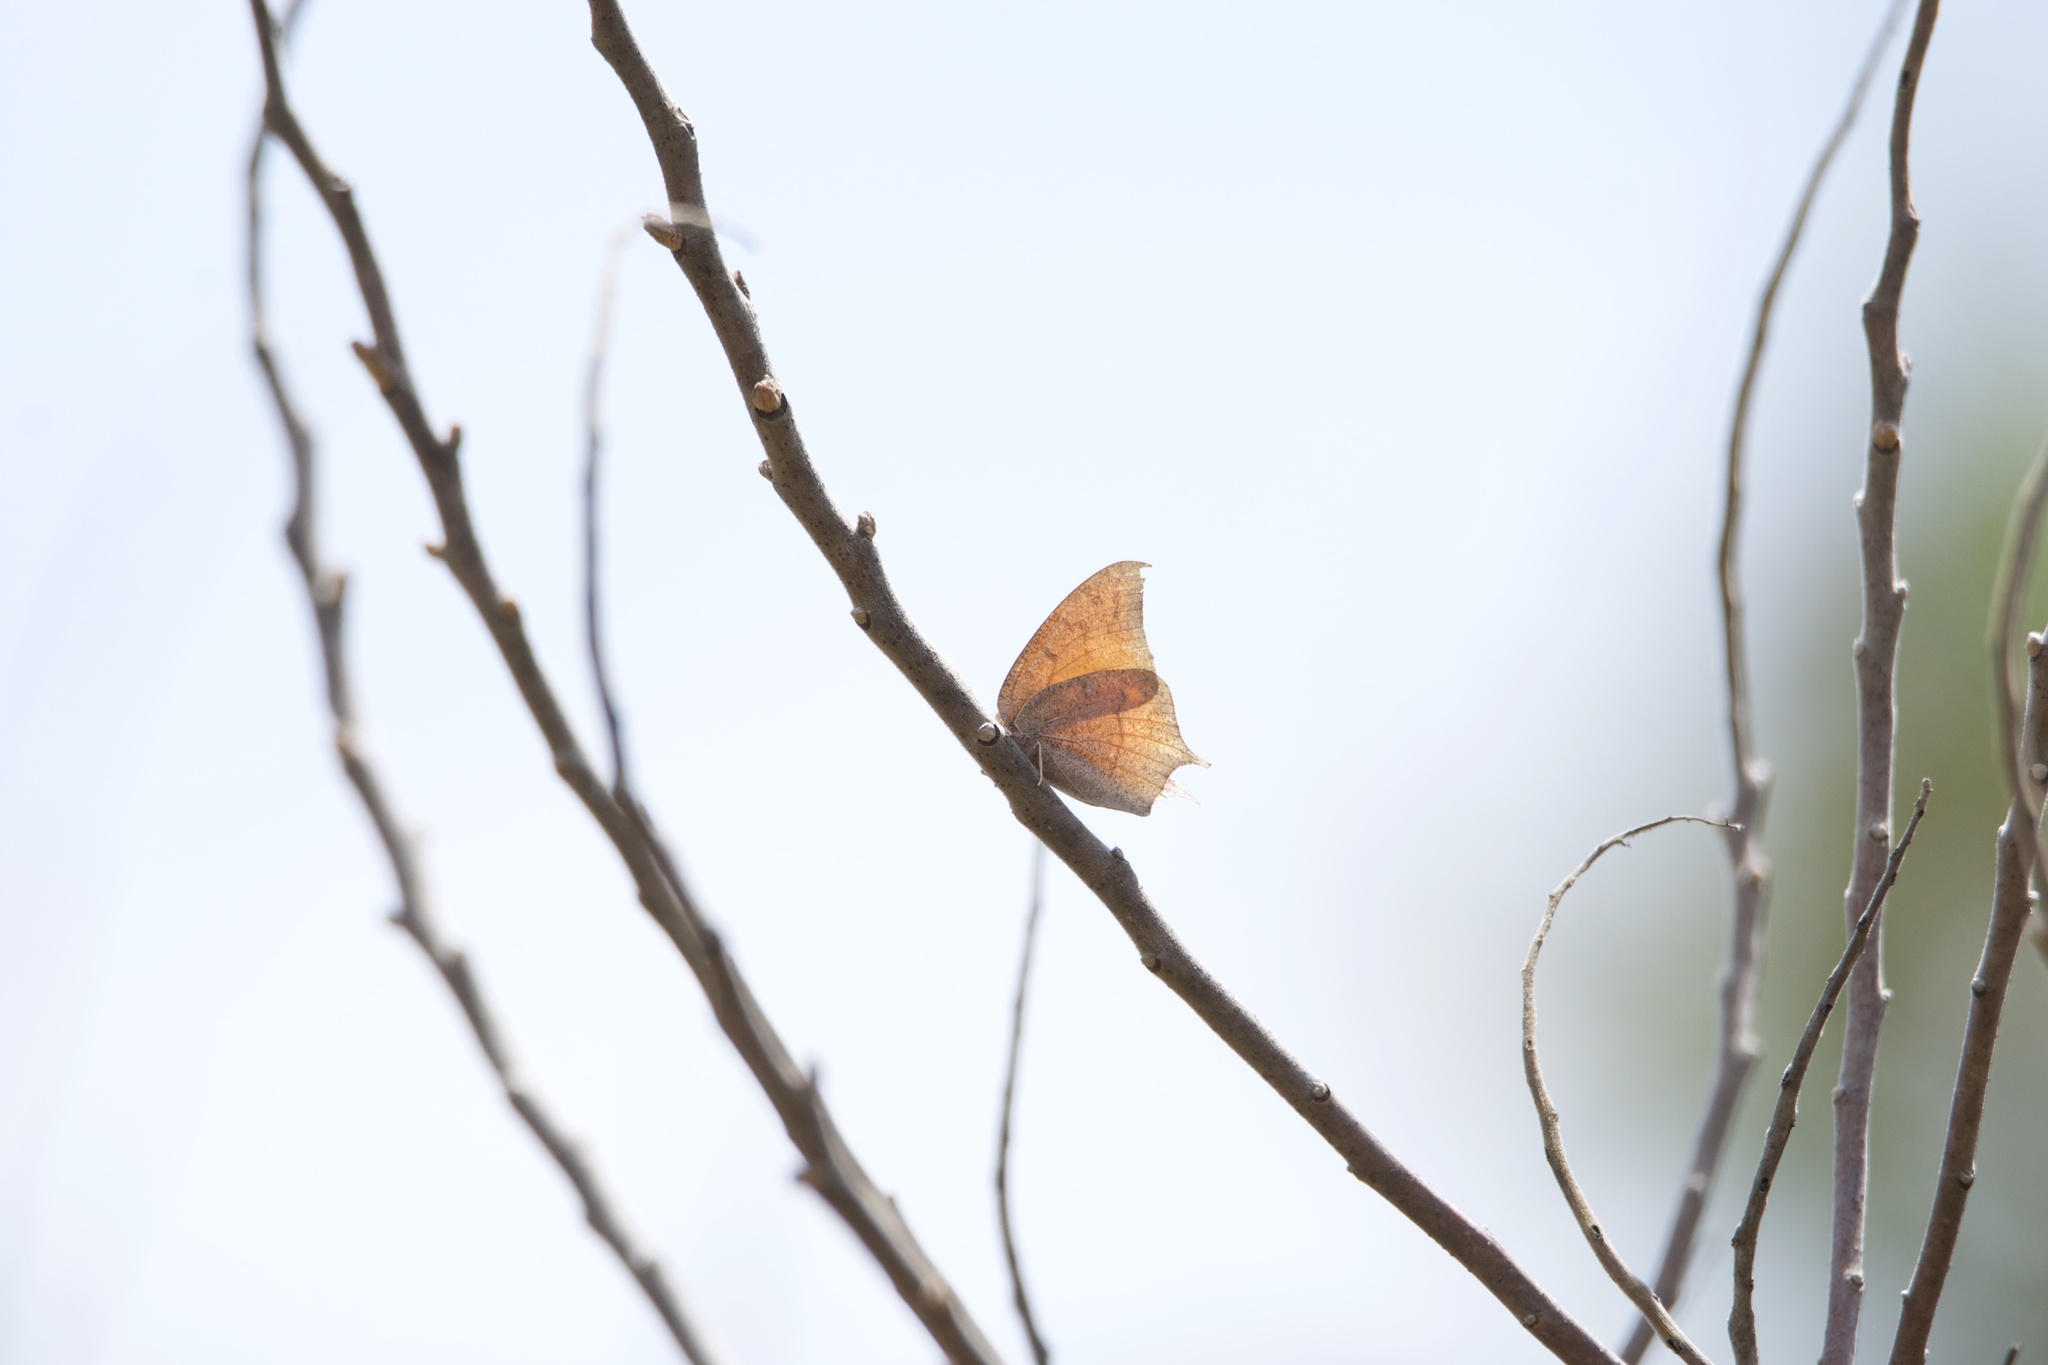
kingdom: Animalia
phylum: Arthropoda
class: Insecta
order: Lepidoptera
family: Nymphalidae
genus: Anaea
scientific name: Anaea andria
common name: Goatweed leafwing
